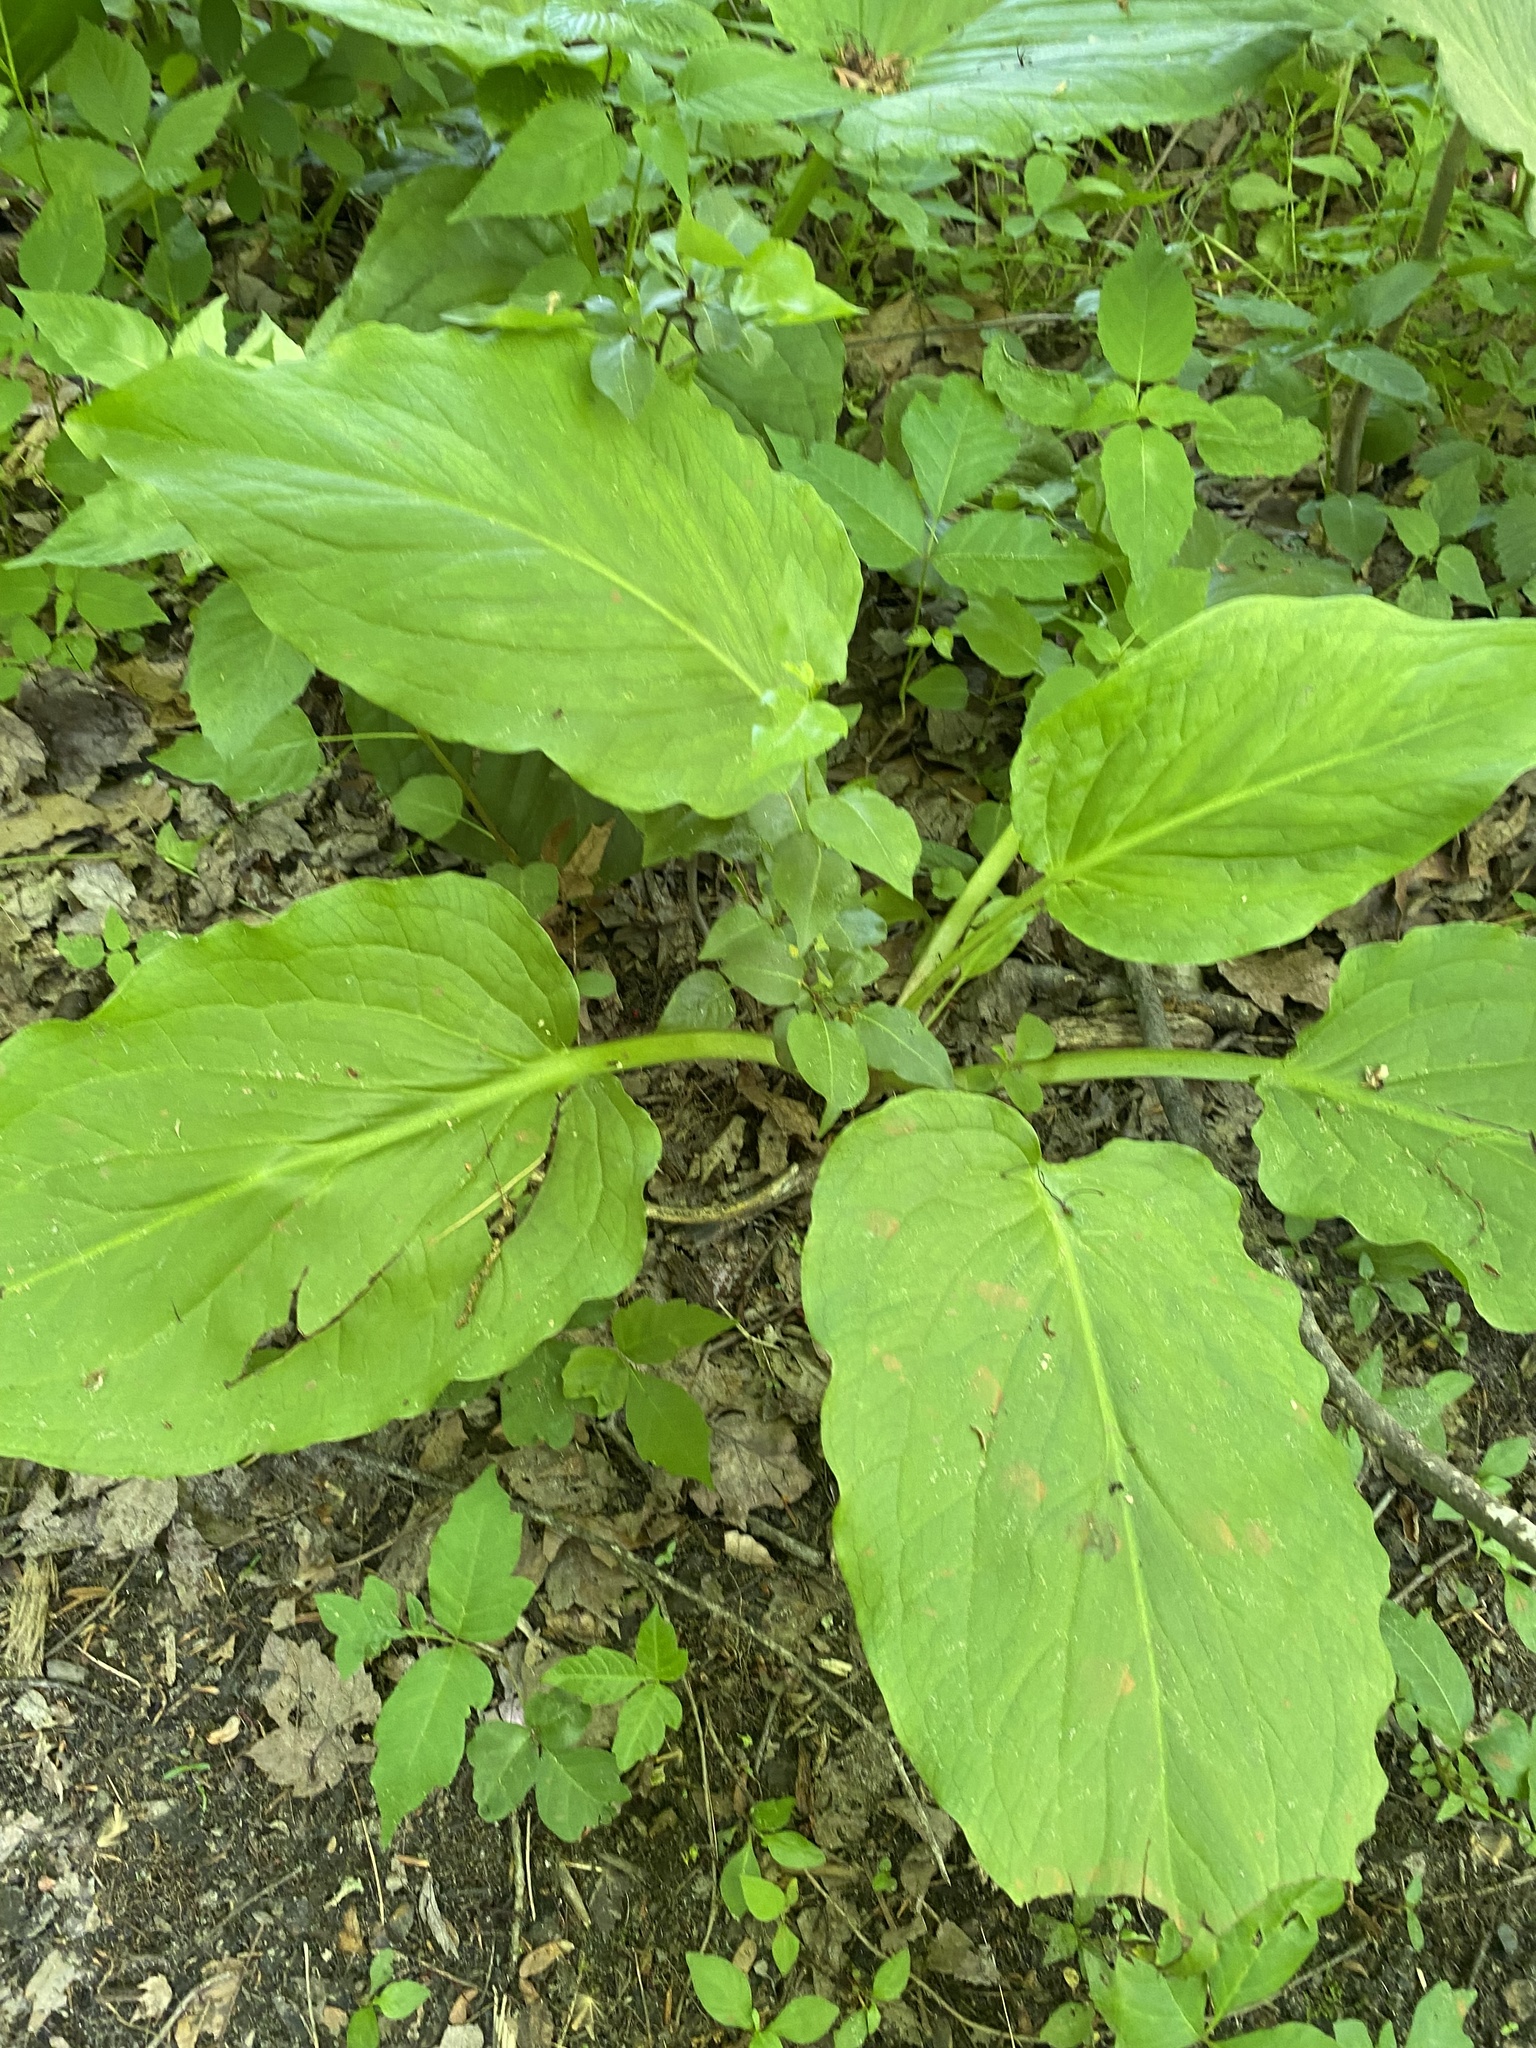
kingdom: Plantae
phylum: Tracheophyta
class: Liliopsida
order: Alismatales
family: Araceae
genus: Symplocarpus
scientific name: Symplocarpus foetidus
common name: Eastern skunk cabbage
